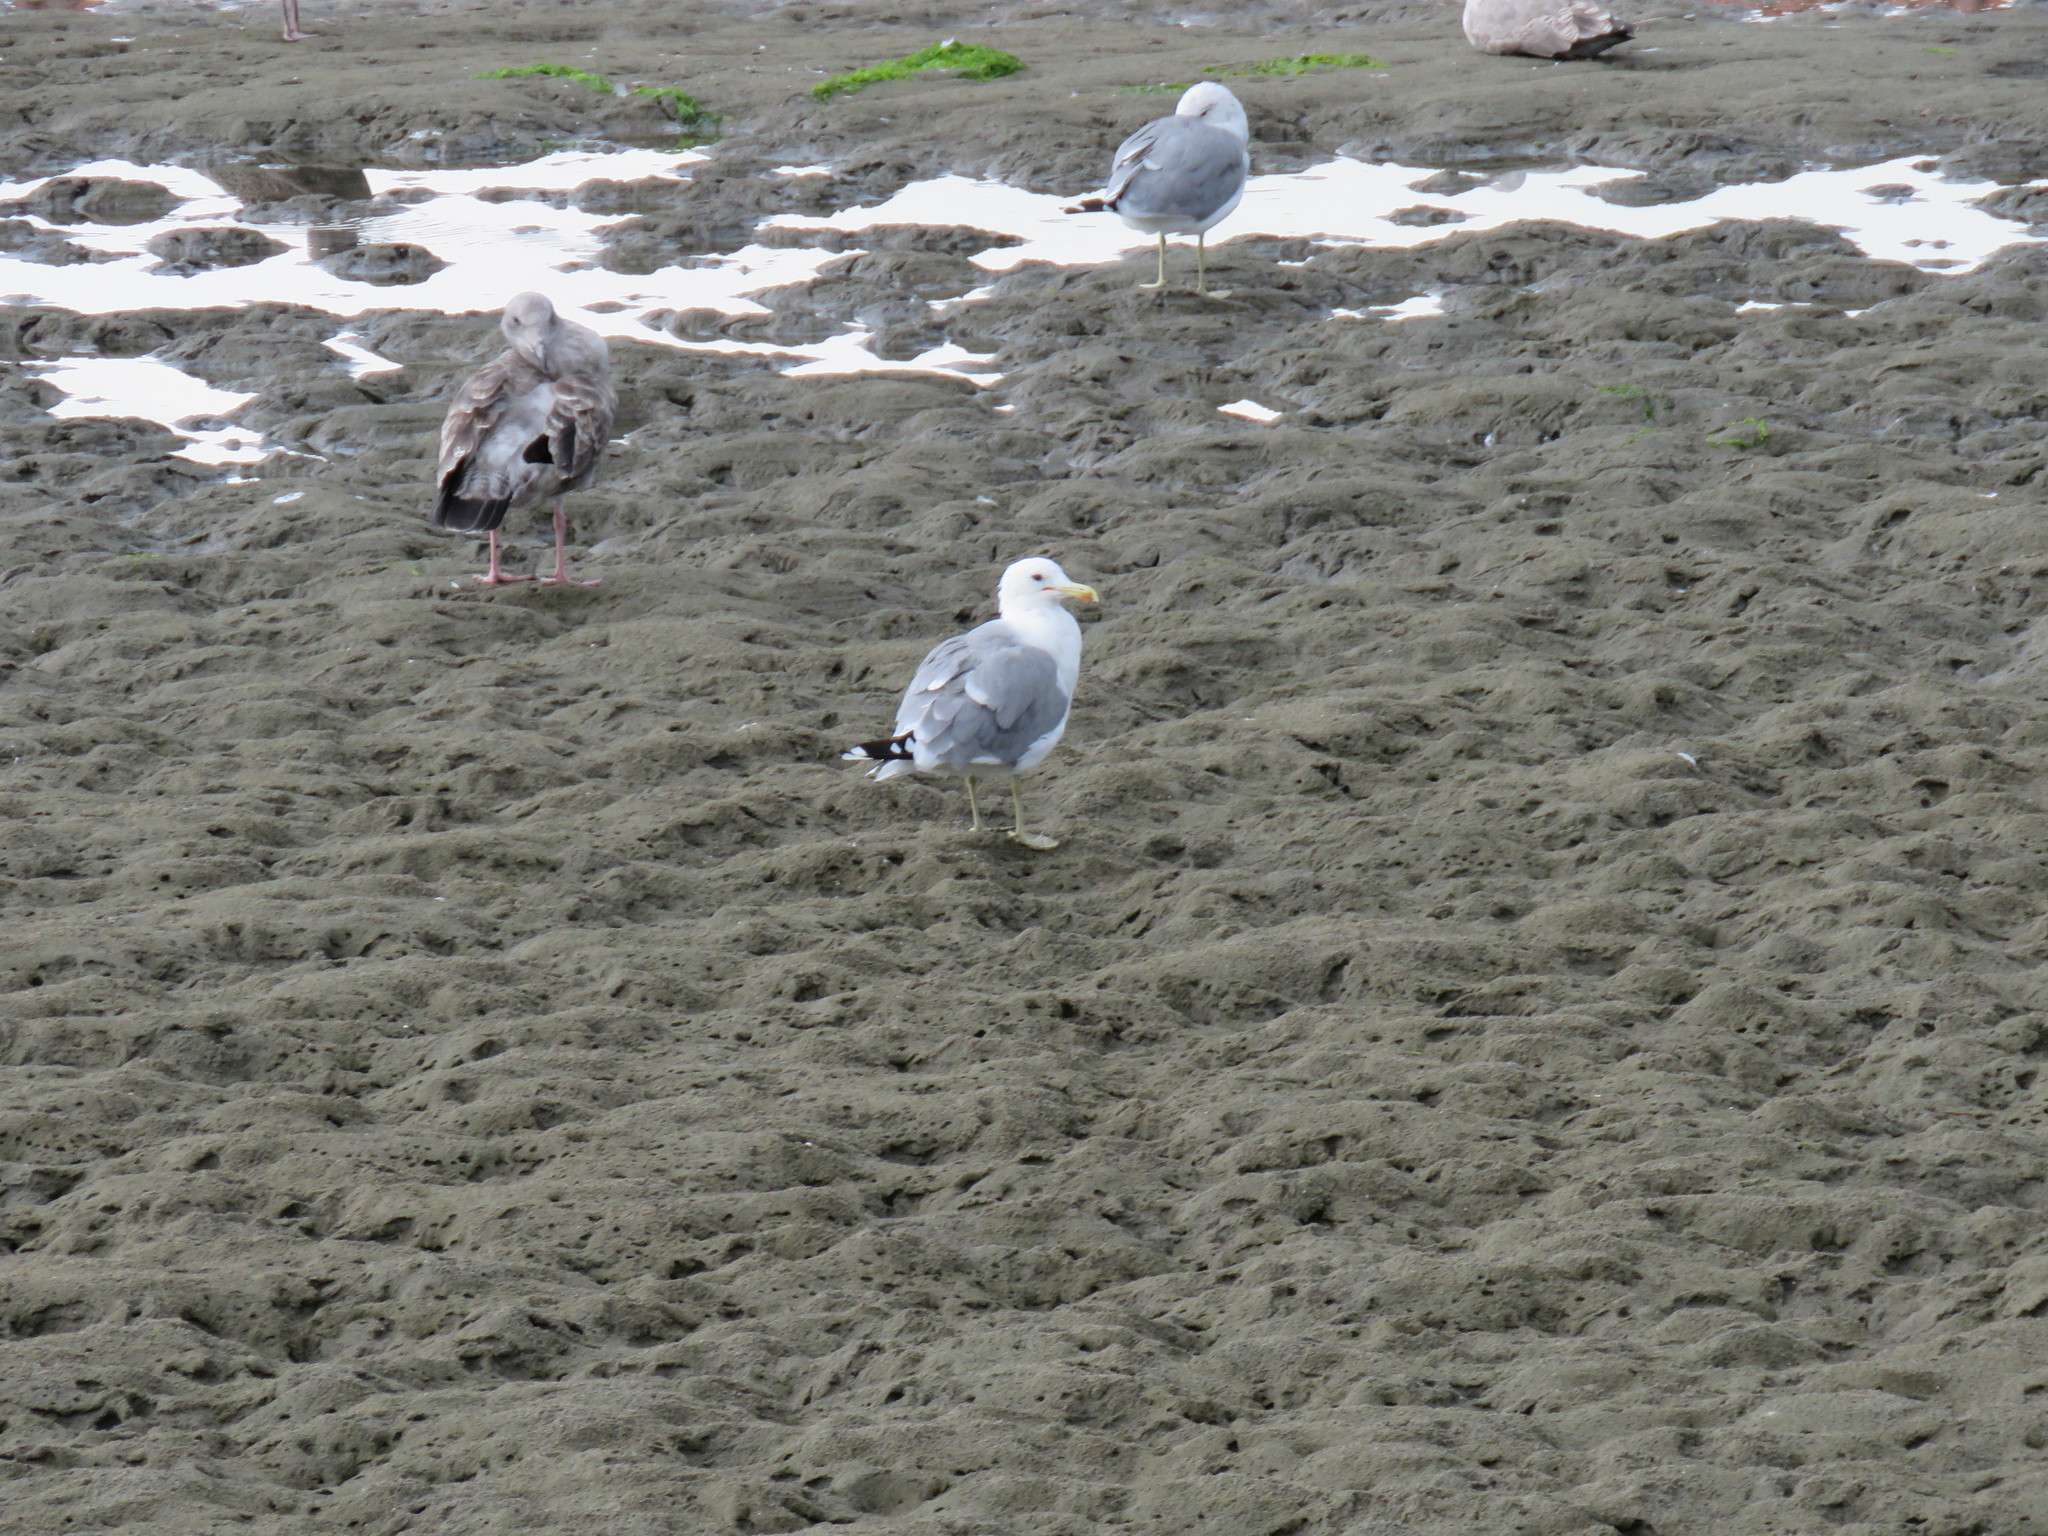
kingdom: Animalia
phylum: Chordata
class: Aves
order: Charadriiformes
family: Laridae
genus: Larus
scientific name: Larus californicus
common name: California gull
